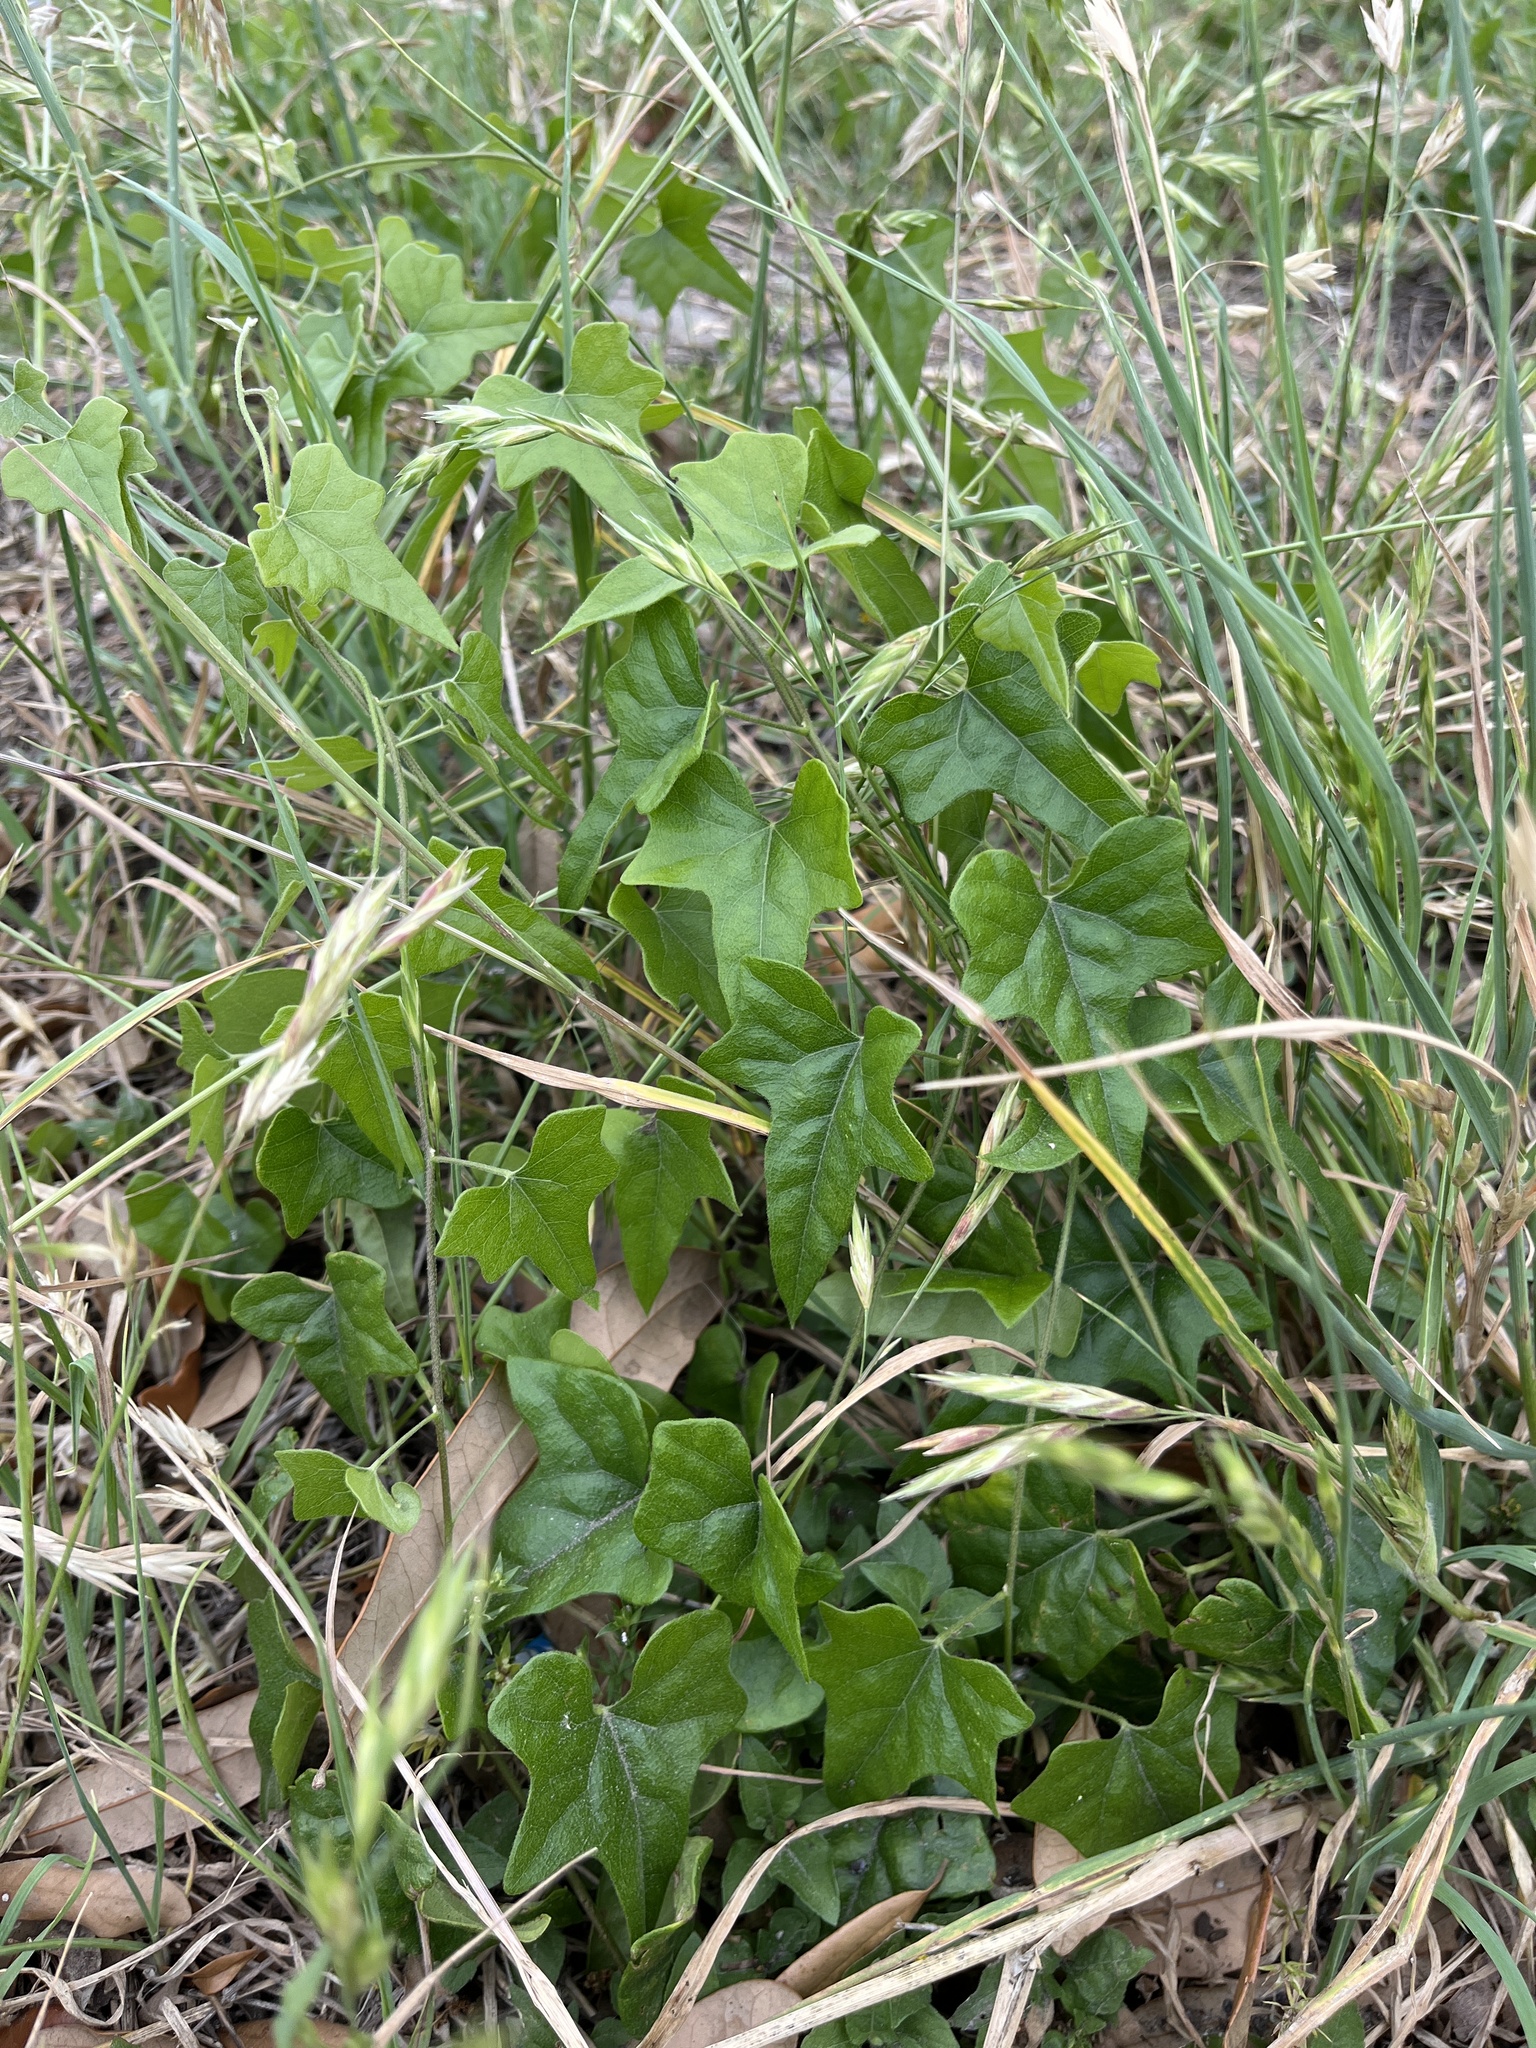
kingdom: Plantae
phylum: Tracheophyta
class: Magnoliopsida
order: Ranunculales
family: Menispermaceae
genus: Cocculus
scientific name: Cocculus carolinus
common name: Carolina moonseed
